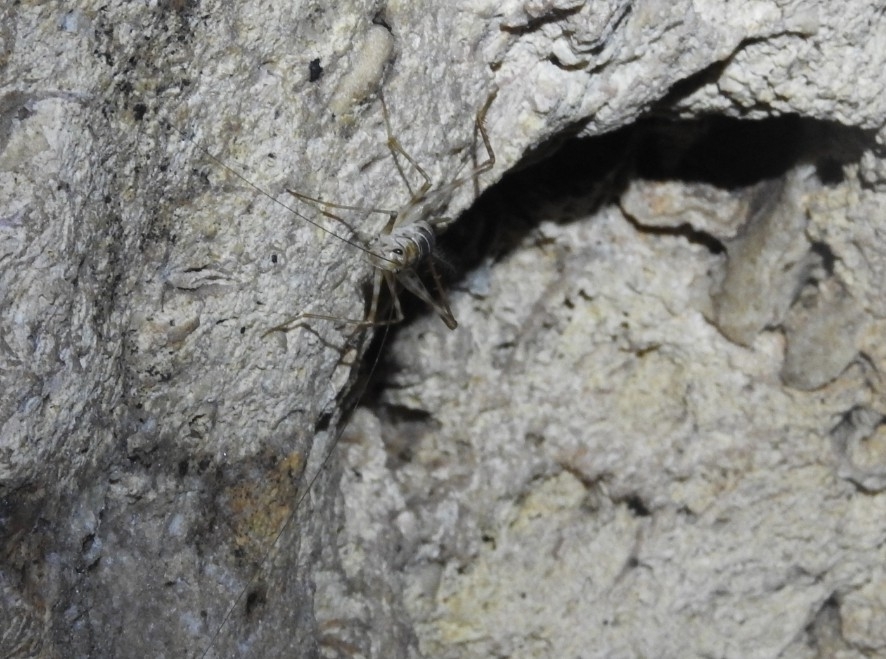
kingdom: Animalia
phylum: Arthropoda
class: Insecta
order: Orthoptera
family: Phalangopsidae
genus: Mayagryllus
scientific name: Mayagryllus yucatanus
